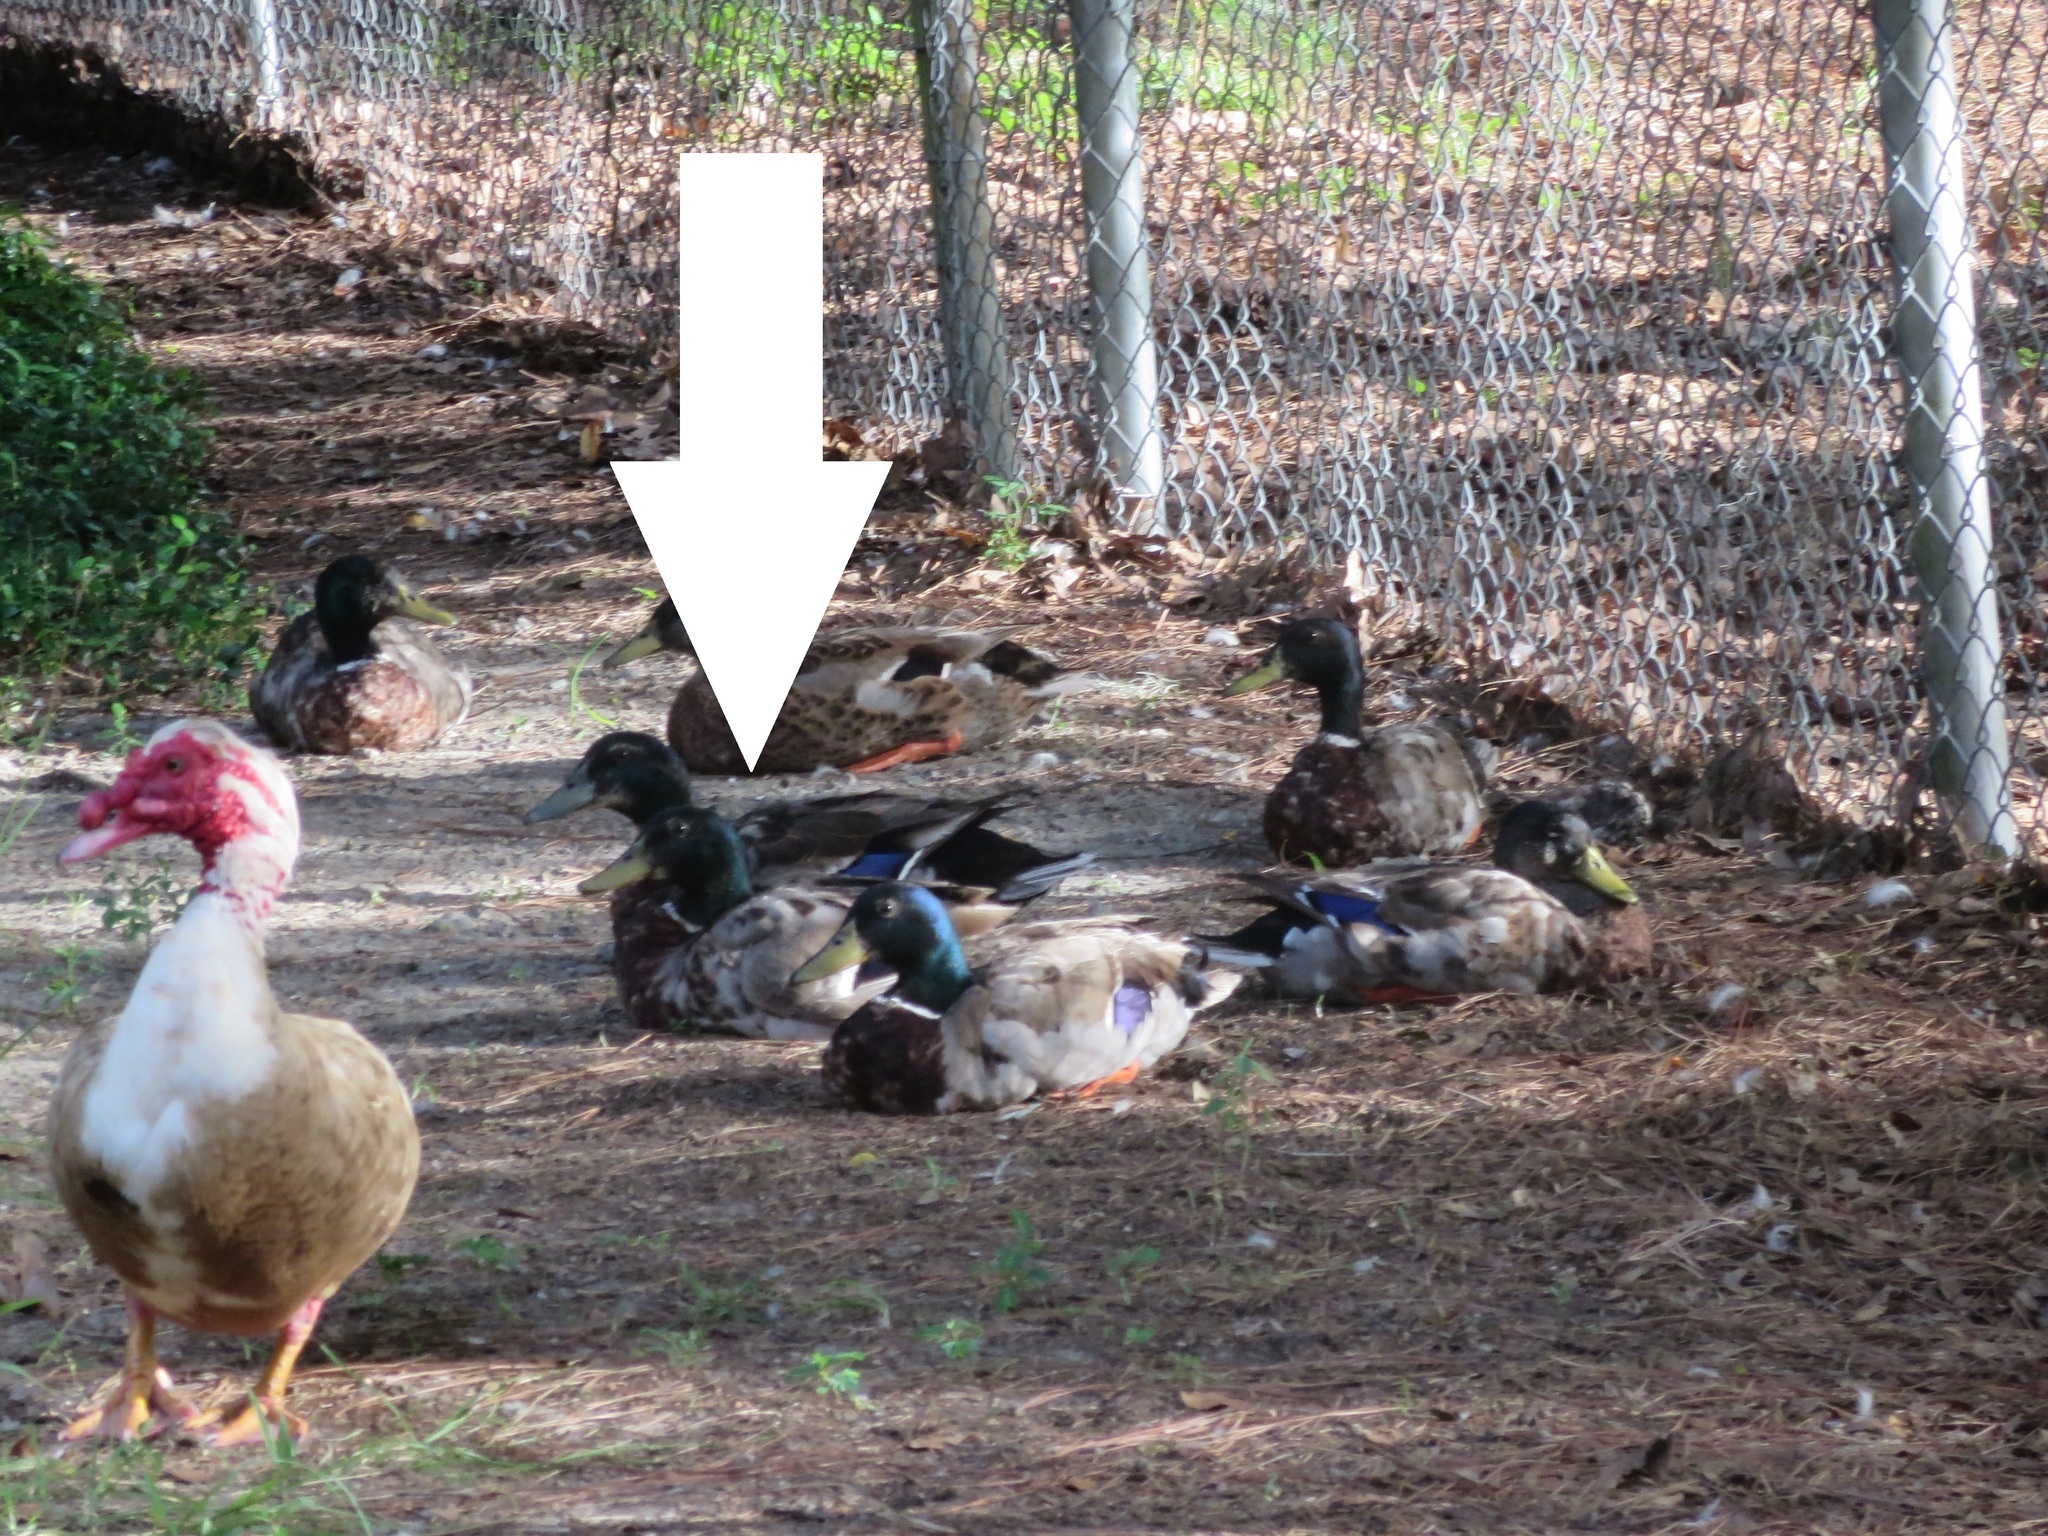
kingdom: Animalia
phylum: Chordata
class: Aves
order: Anseriformes
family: Anatidae
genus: Anas
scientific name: Anas platyrhynchos
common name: Mallard
